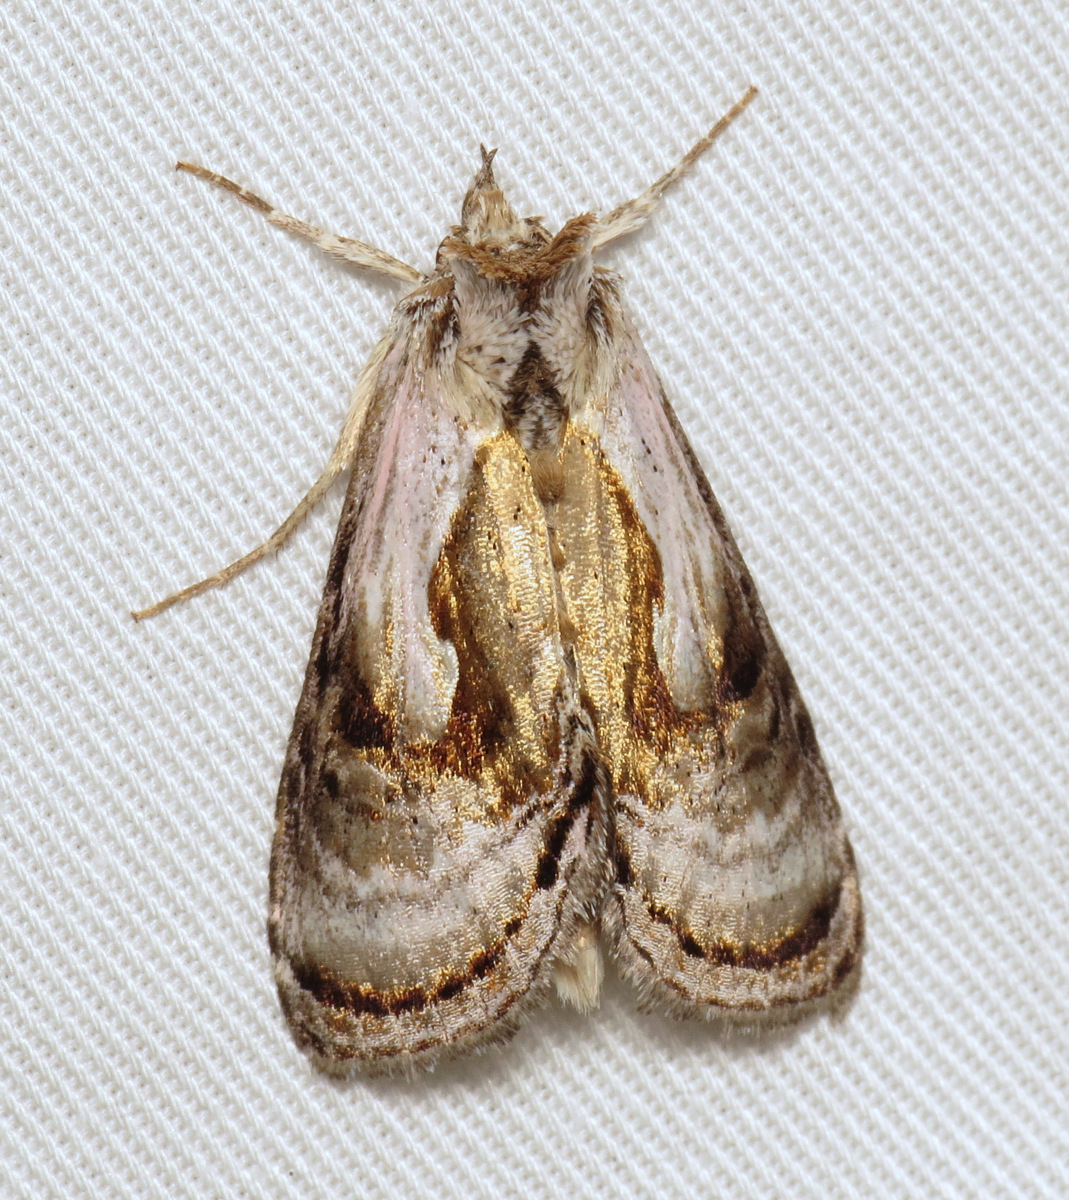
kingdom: Animalia
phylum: Arthropoda
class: Insecta
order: Lepidoptera
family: Noctuidae
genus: Chrysanympha
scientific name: Chrysanympha formosa
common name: Formosa looper moth
